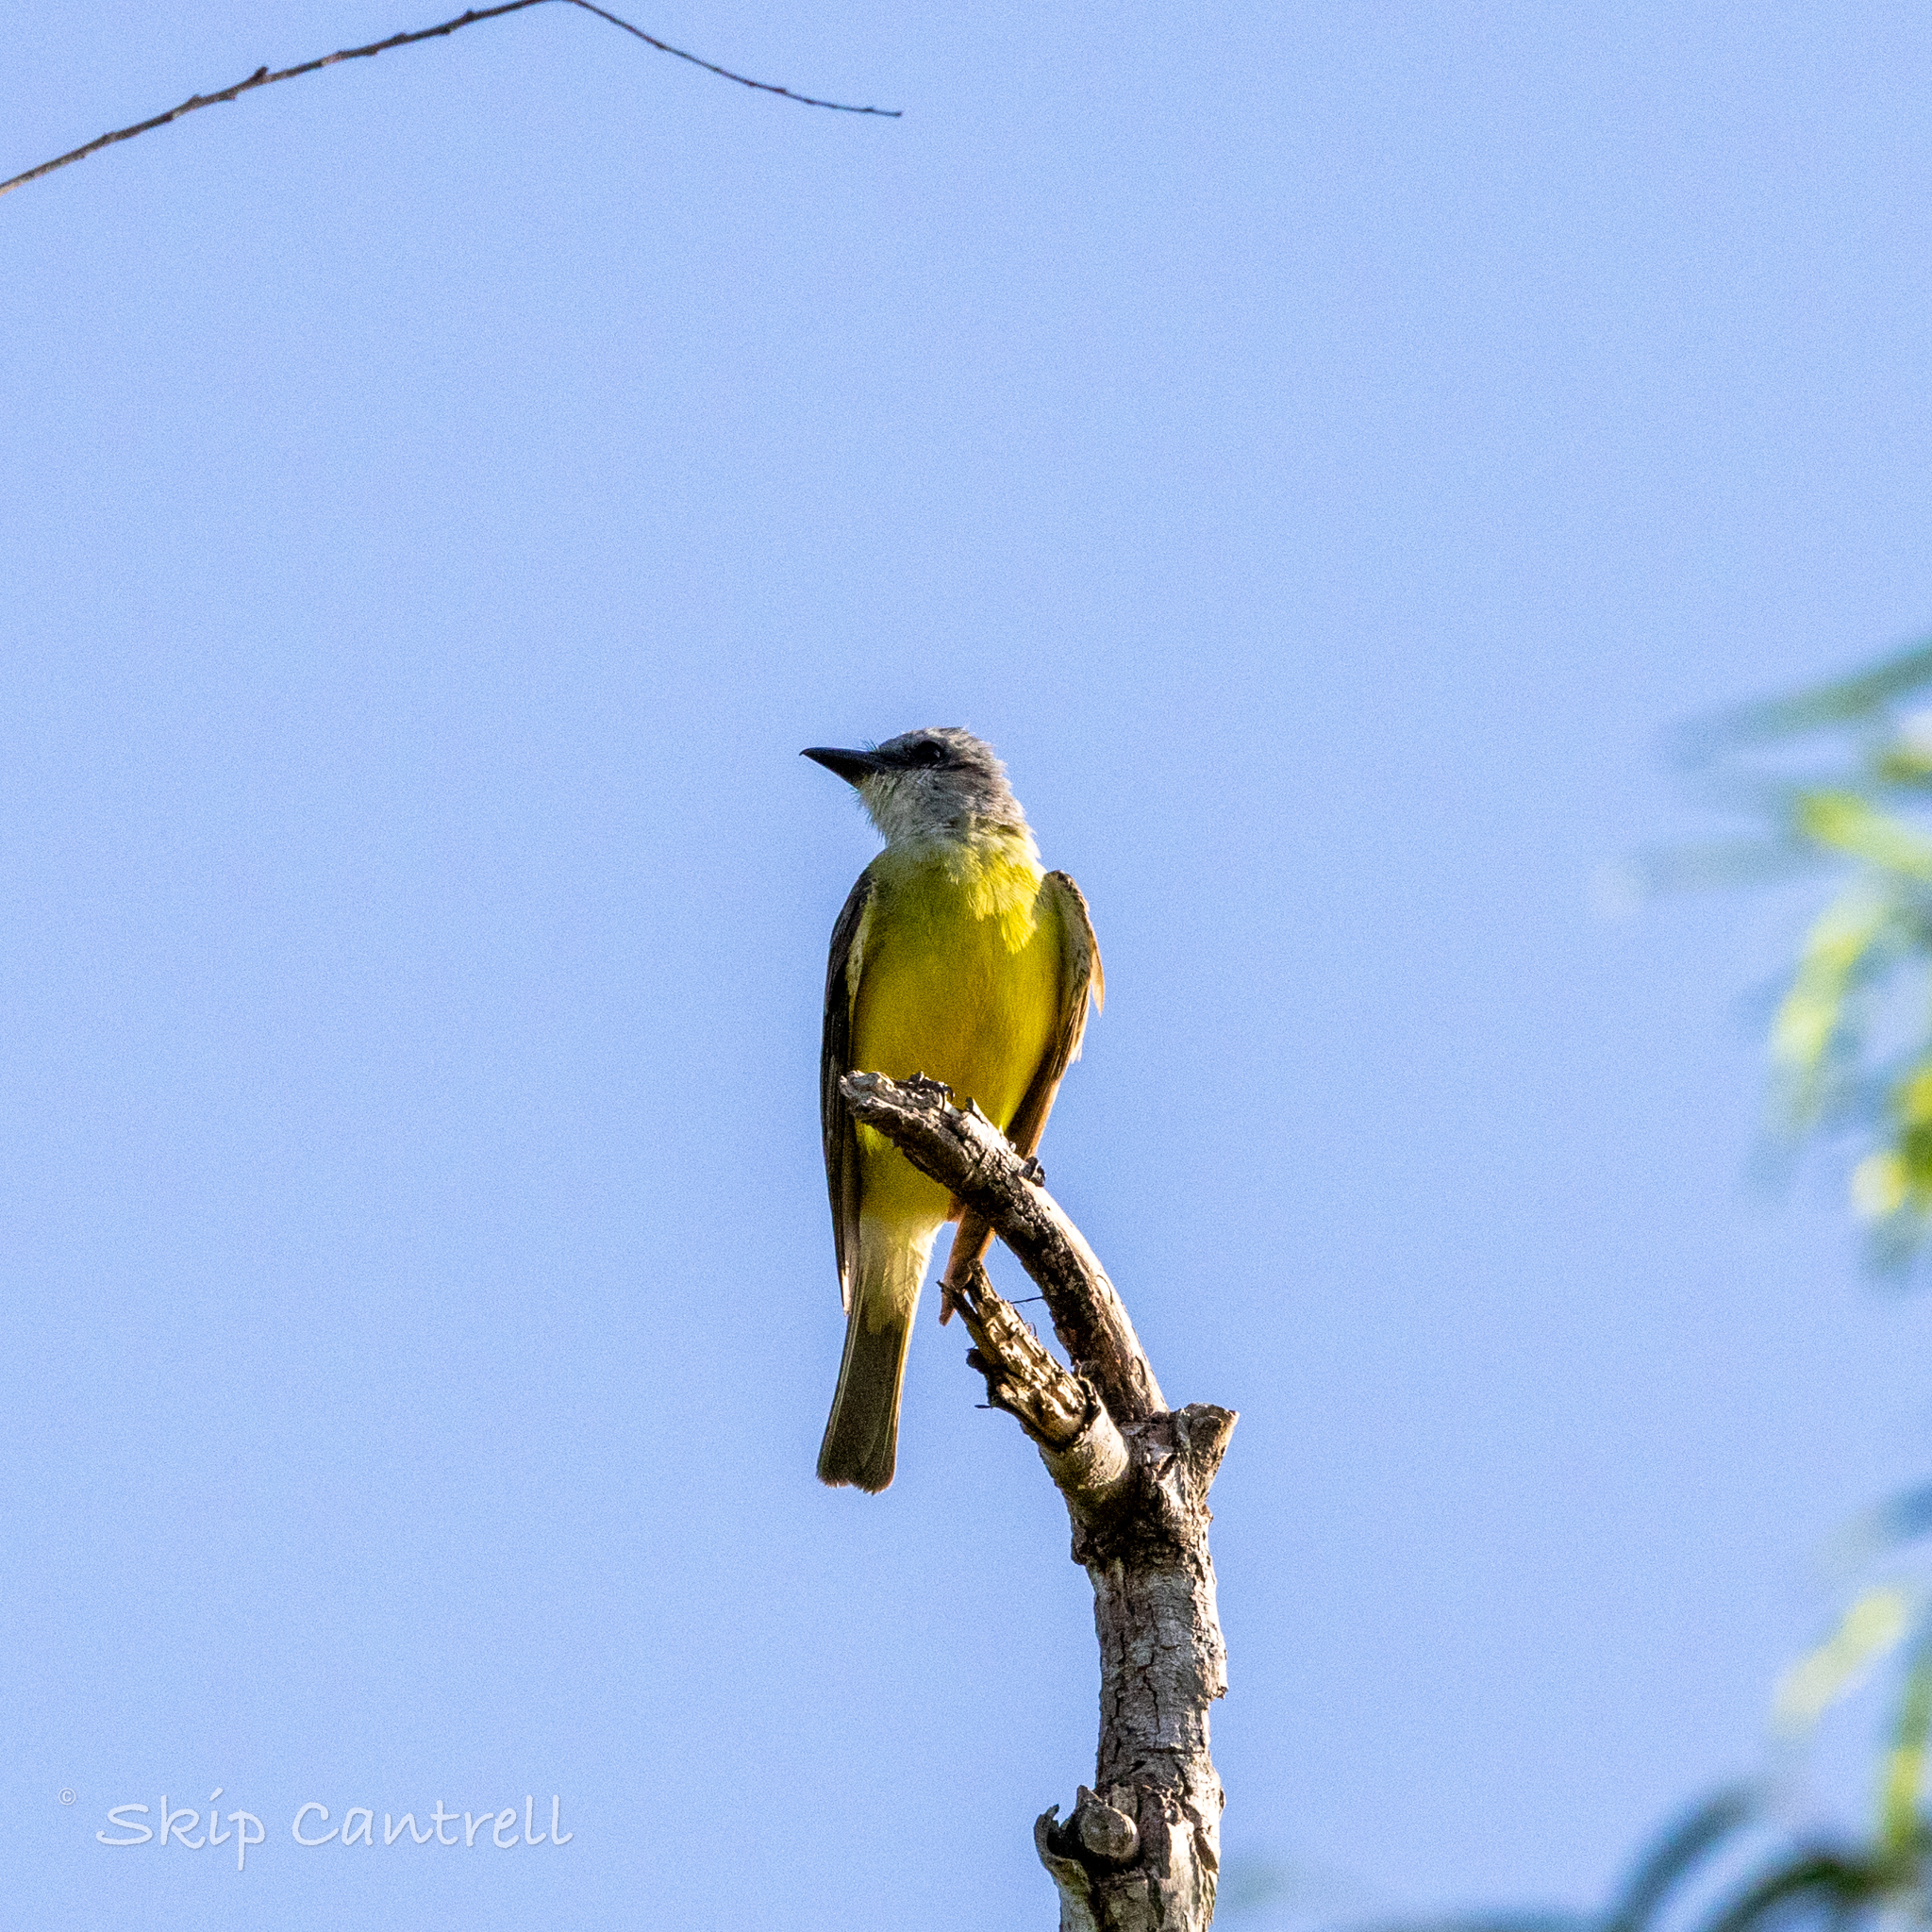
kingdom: Animalia
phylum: Chordata
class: Aves
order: Passeriformes
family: Tyrannidae
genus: Tyrannus
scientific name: Tyrannus couchii
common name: Couch's kingbird
